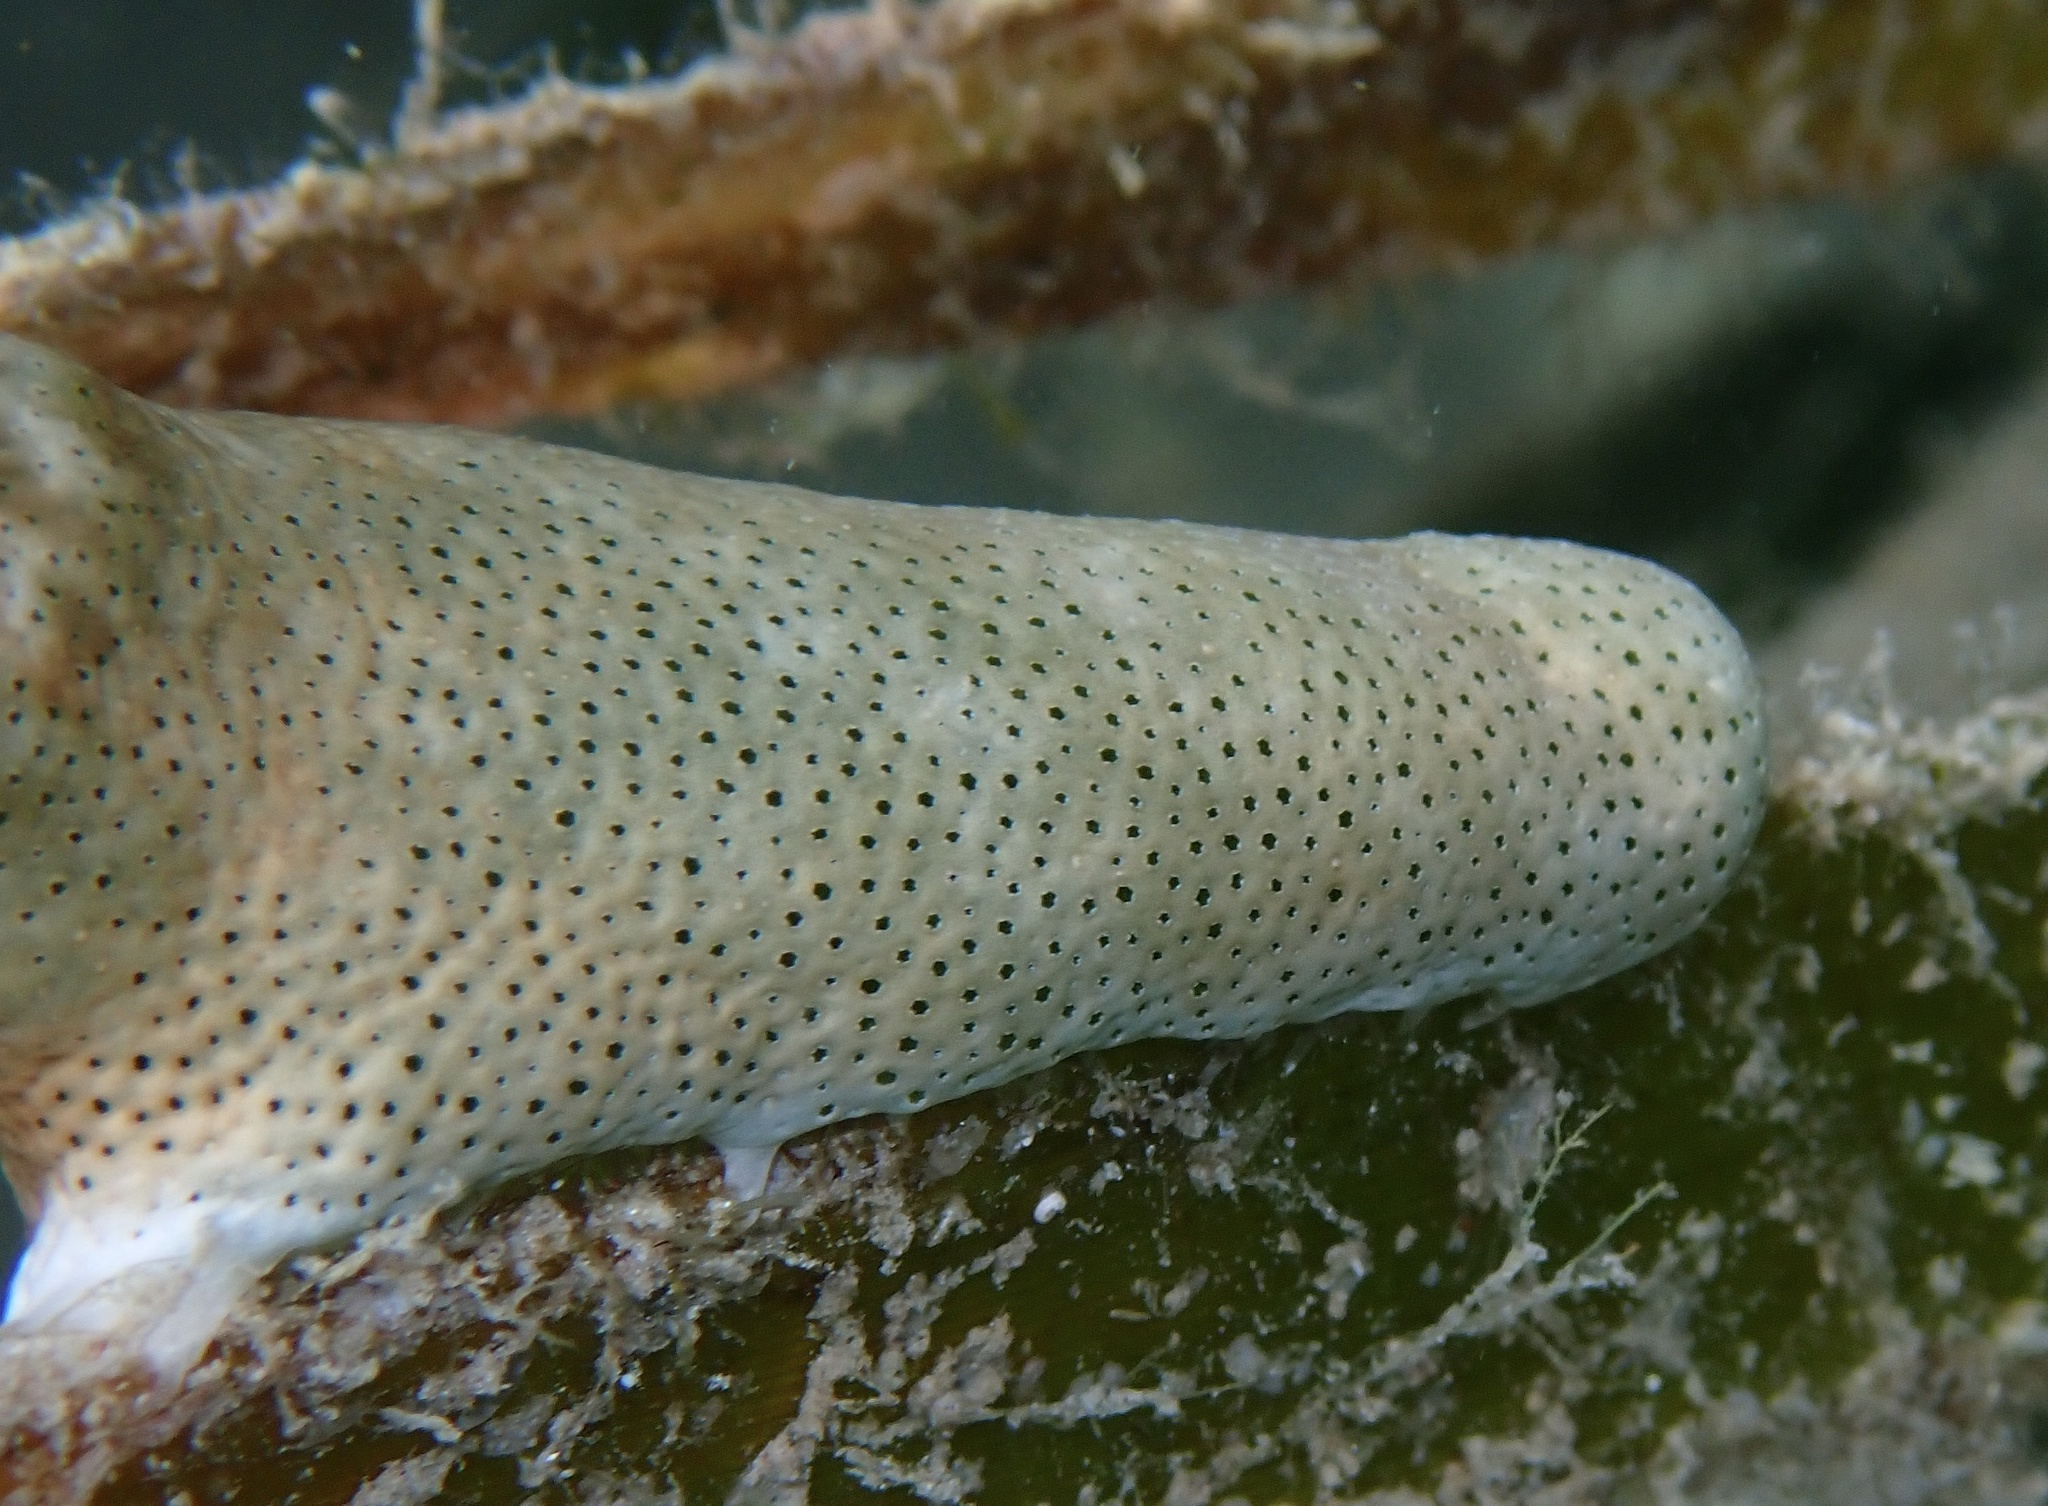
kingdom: Animalia
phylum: Chordata
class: Ascidiacea
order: Aplousobranchia
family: Didemnidae
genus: Didemnum
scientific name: Didemnum molle
